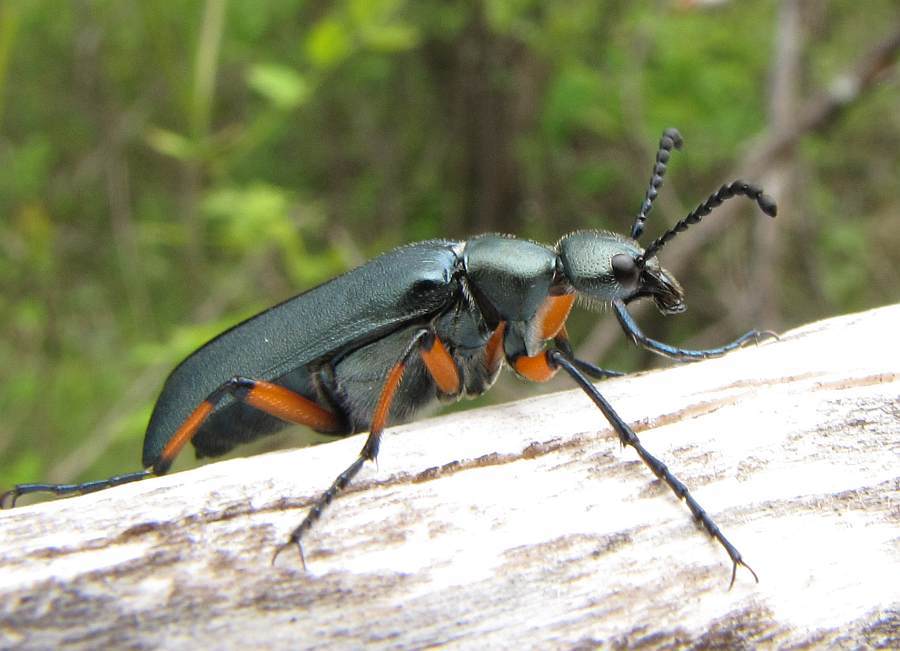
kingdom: Animalia
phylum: Arthropoda
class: Insecta
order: Coleoptera
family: Meloidae
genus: Lytta
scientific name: Lytta sayi
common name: Say's blister beetle
